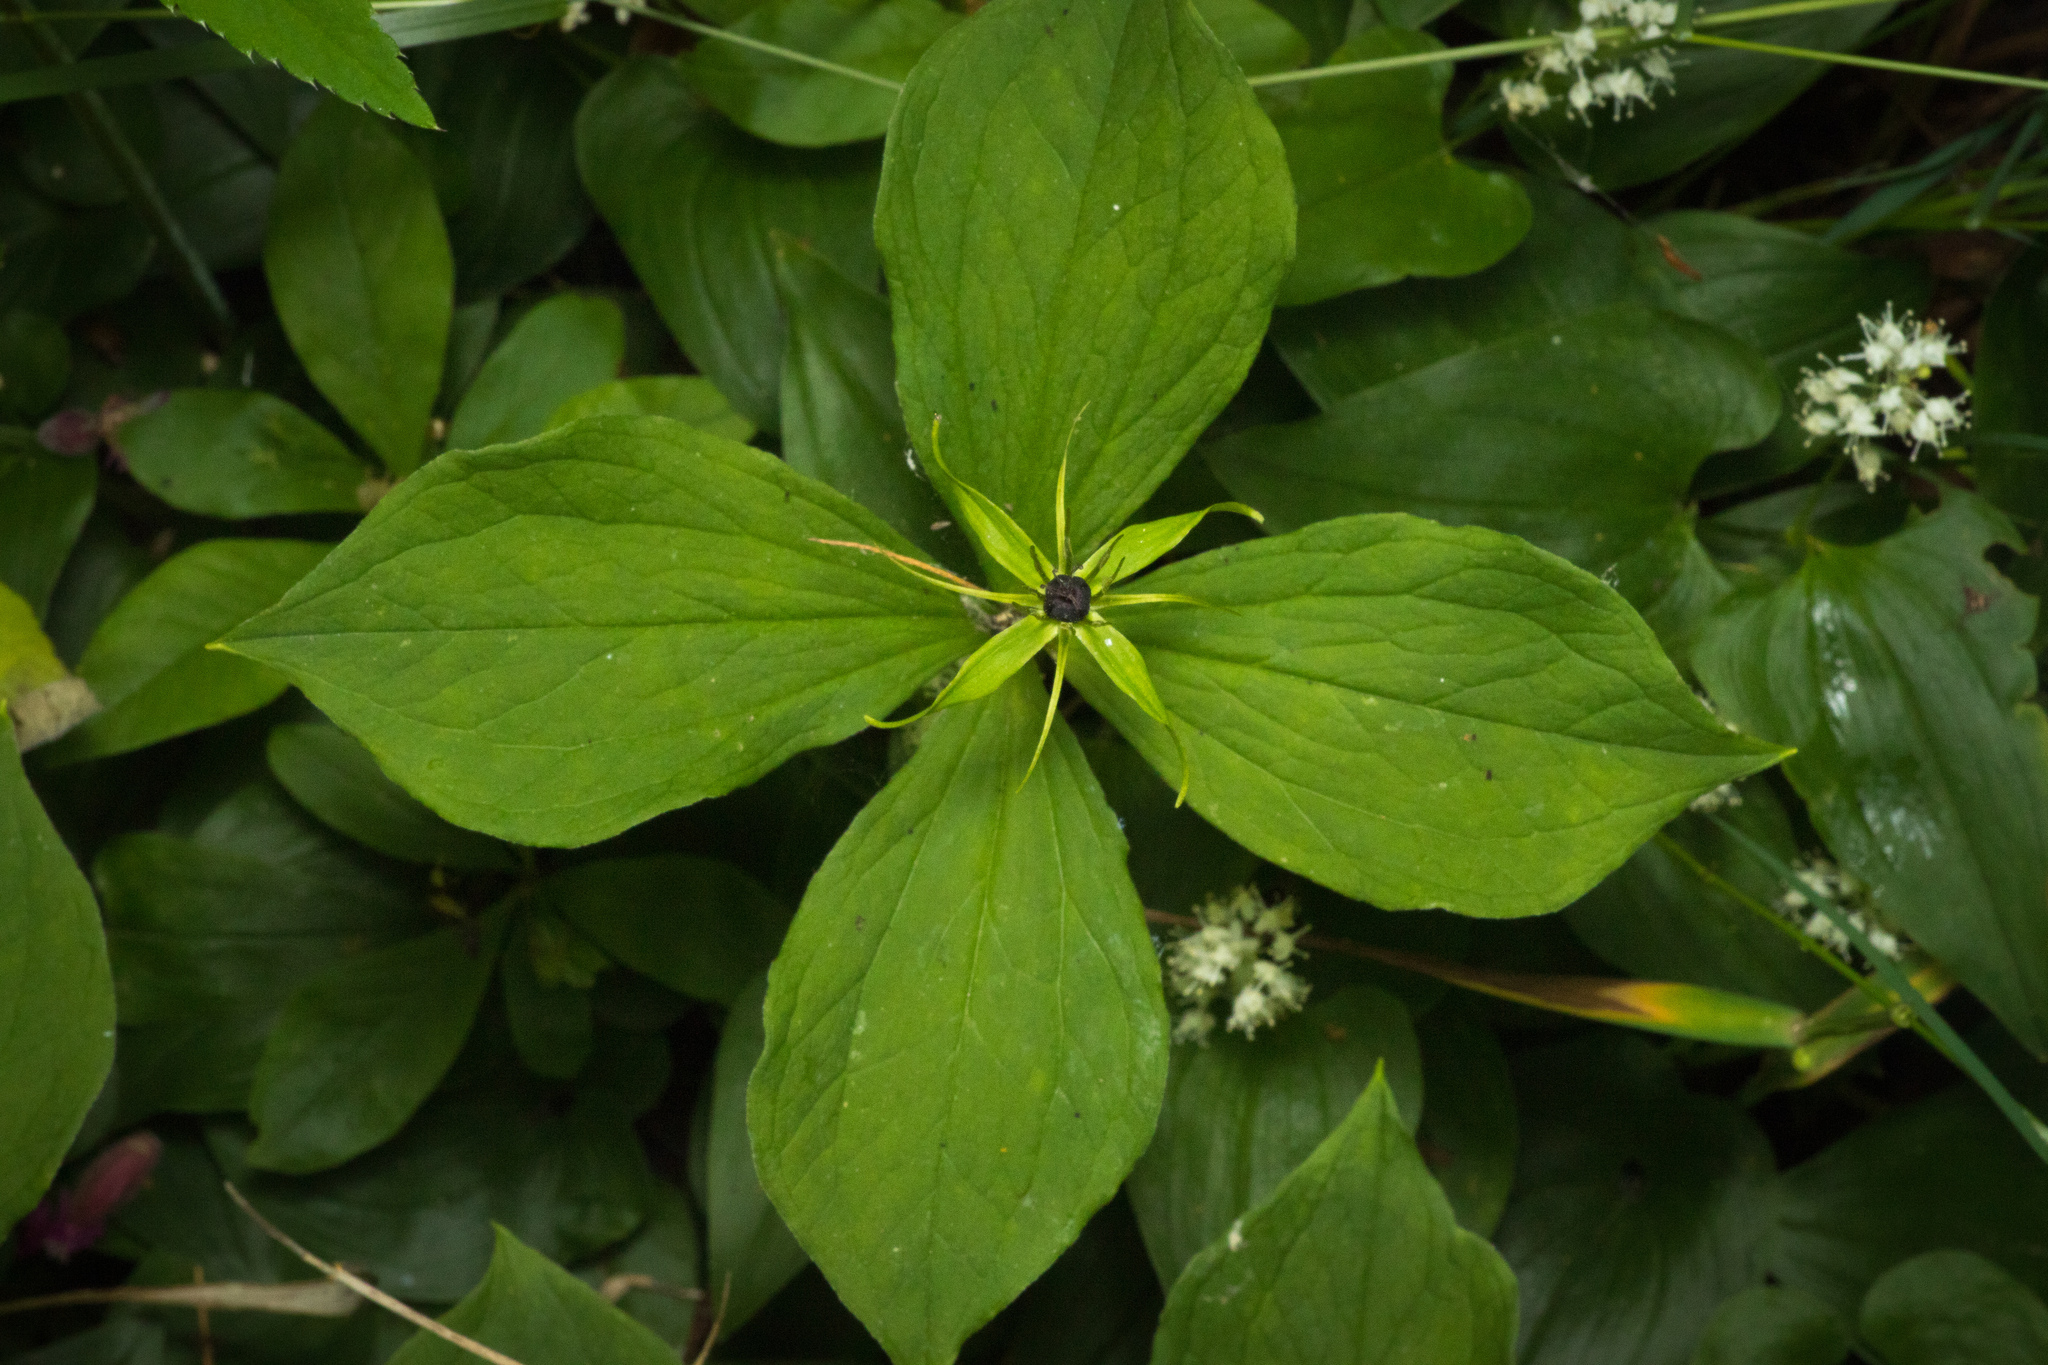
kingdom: Plantae
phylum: Tracheophyta
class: Liliopsida
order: Liliales
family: Melanthiaceae
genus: Paris
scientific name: Paris quadrifolia
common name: Herb-paris
